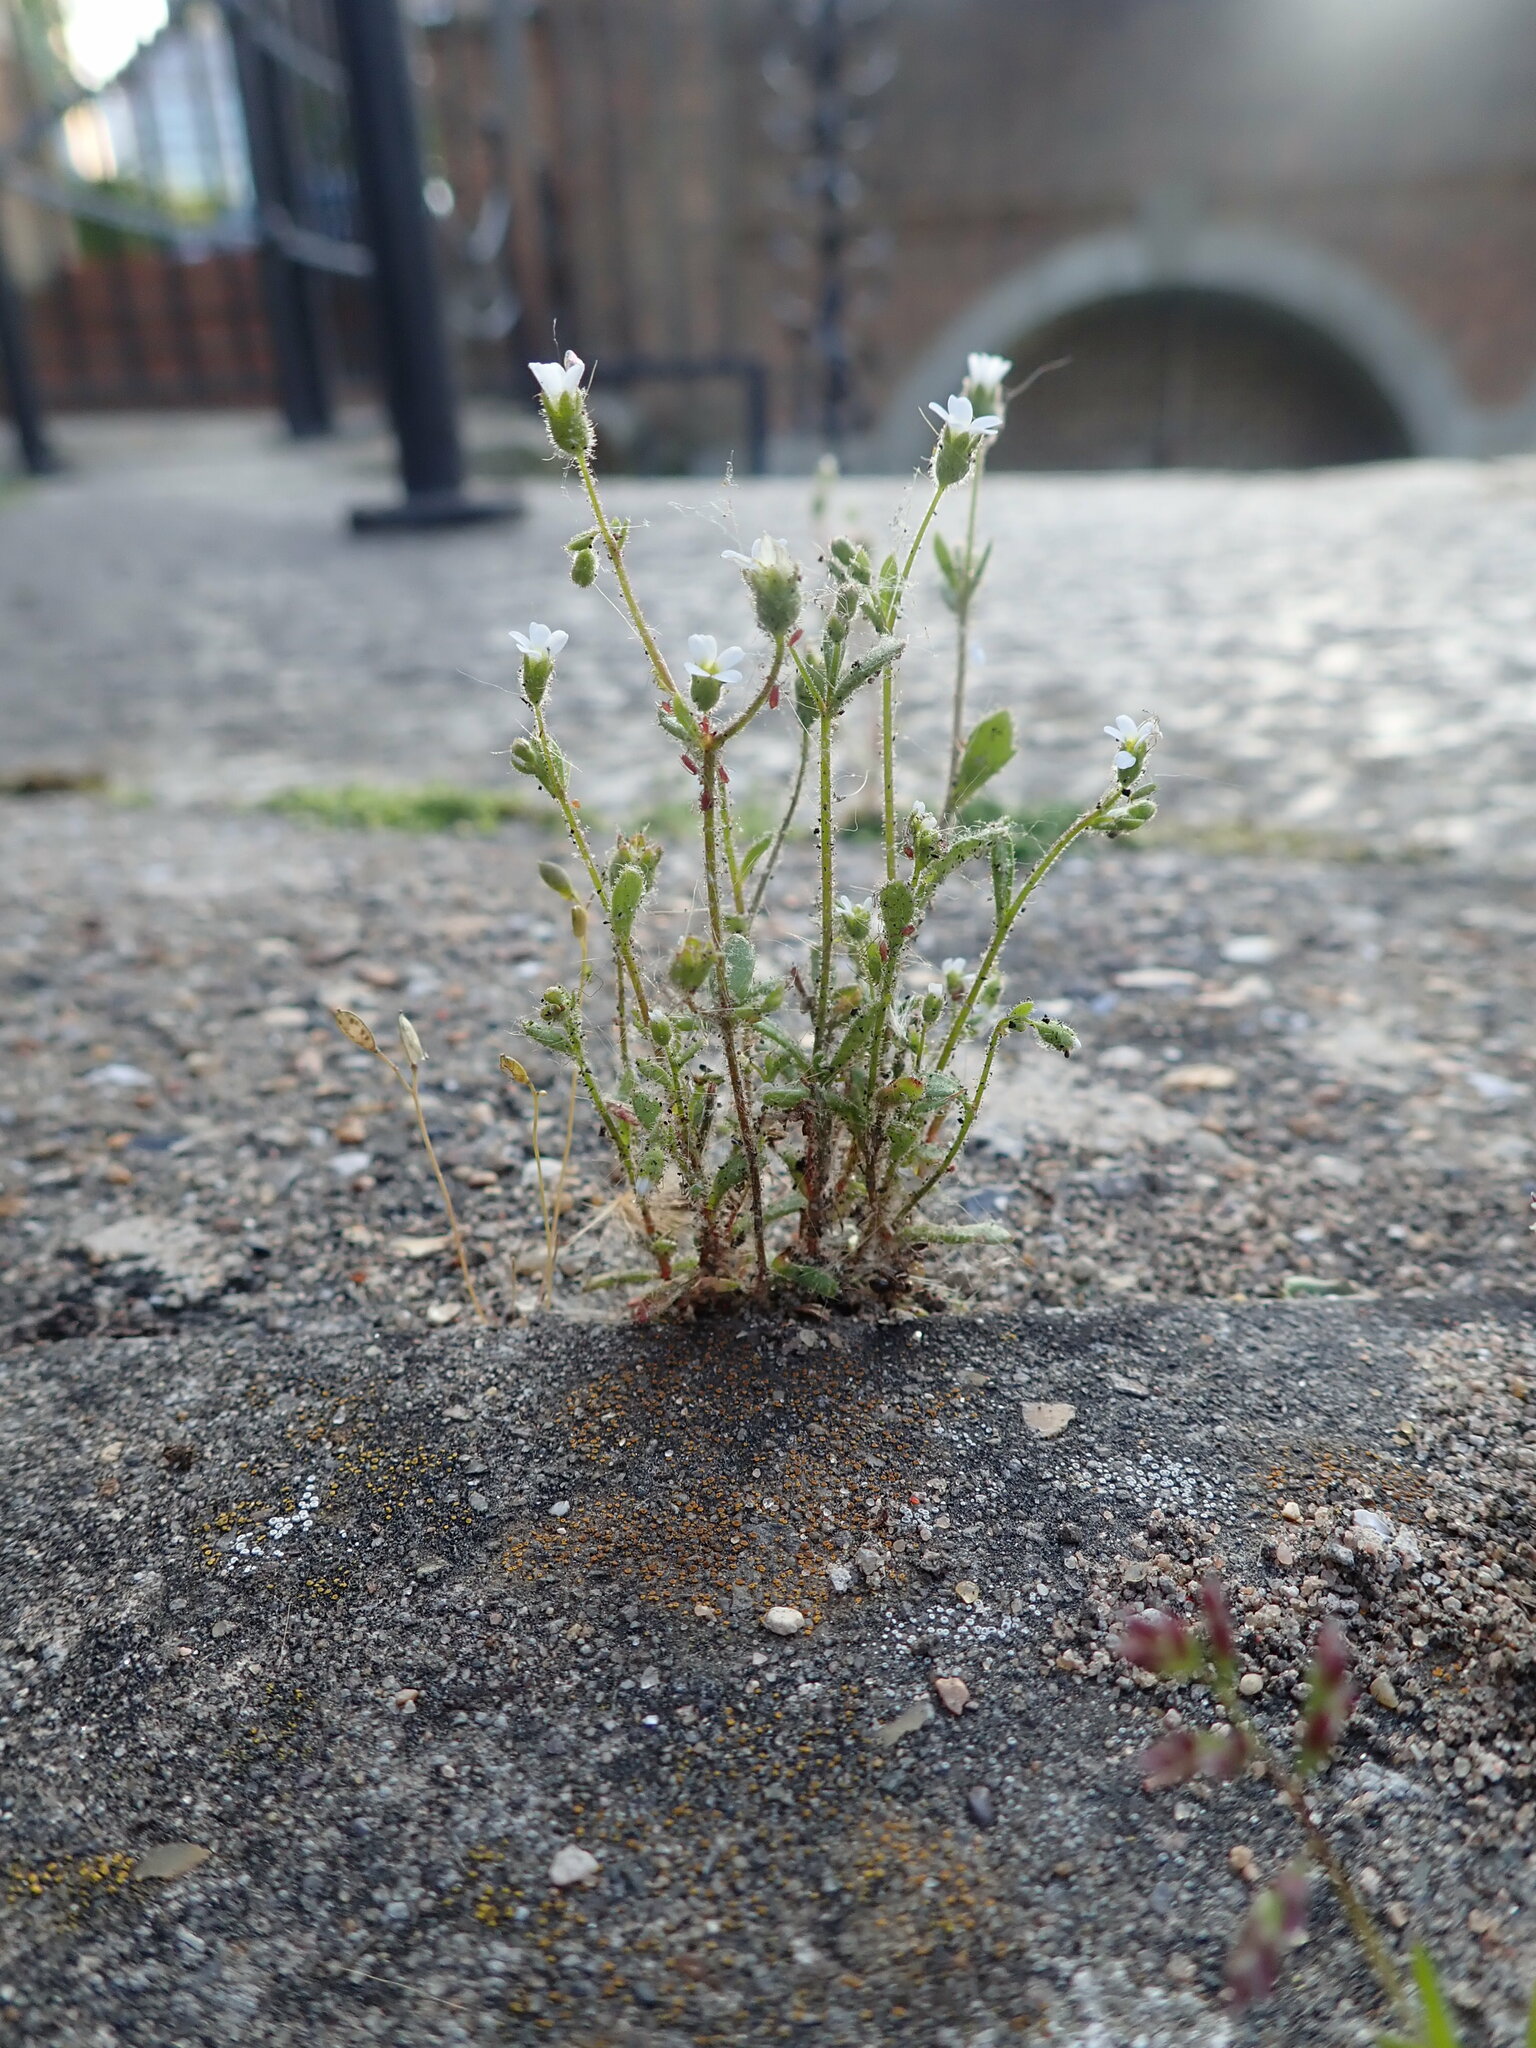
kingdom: Plantae
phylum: Tracheophyta
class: Magnoliopsida
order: Saxifragales
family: Saxifragaceae
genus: Saxifraga
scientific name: Saxifraga tridactylites
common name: Rue-leaved saxifrage
